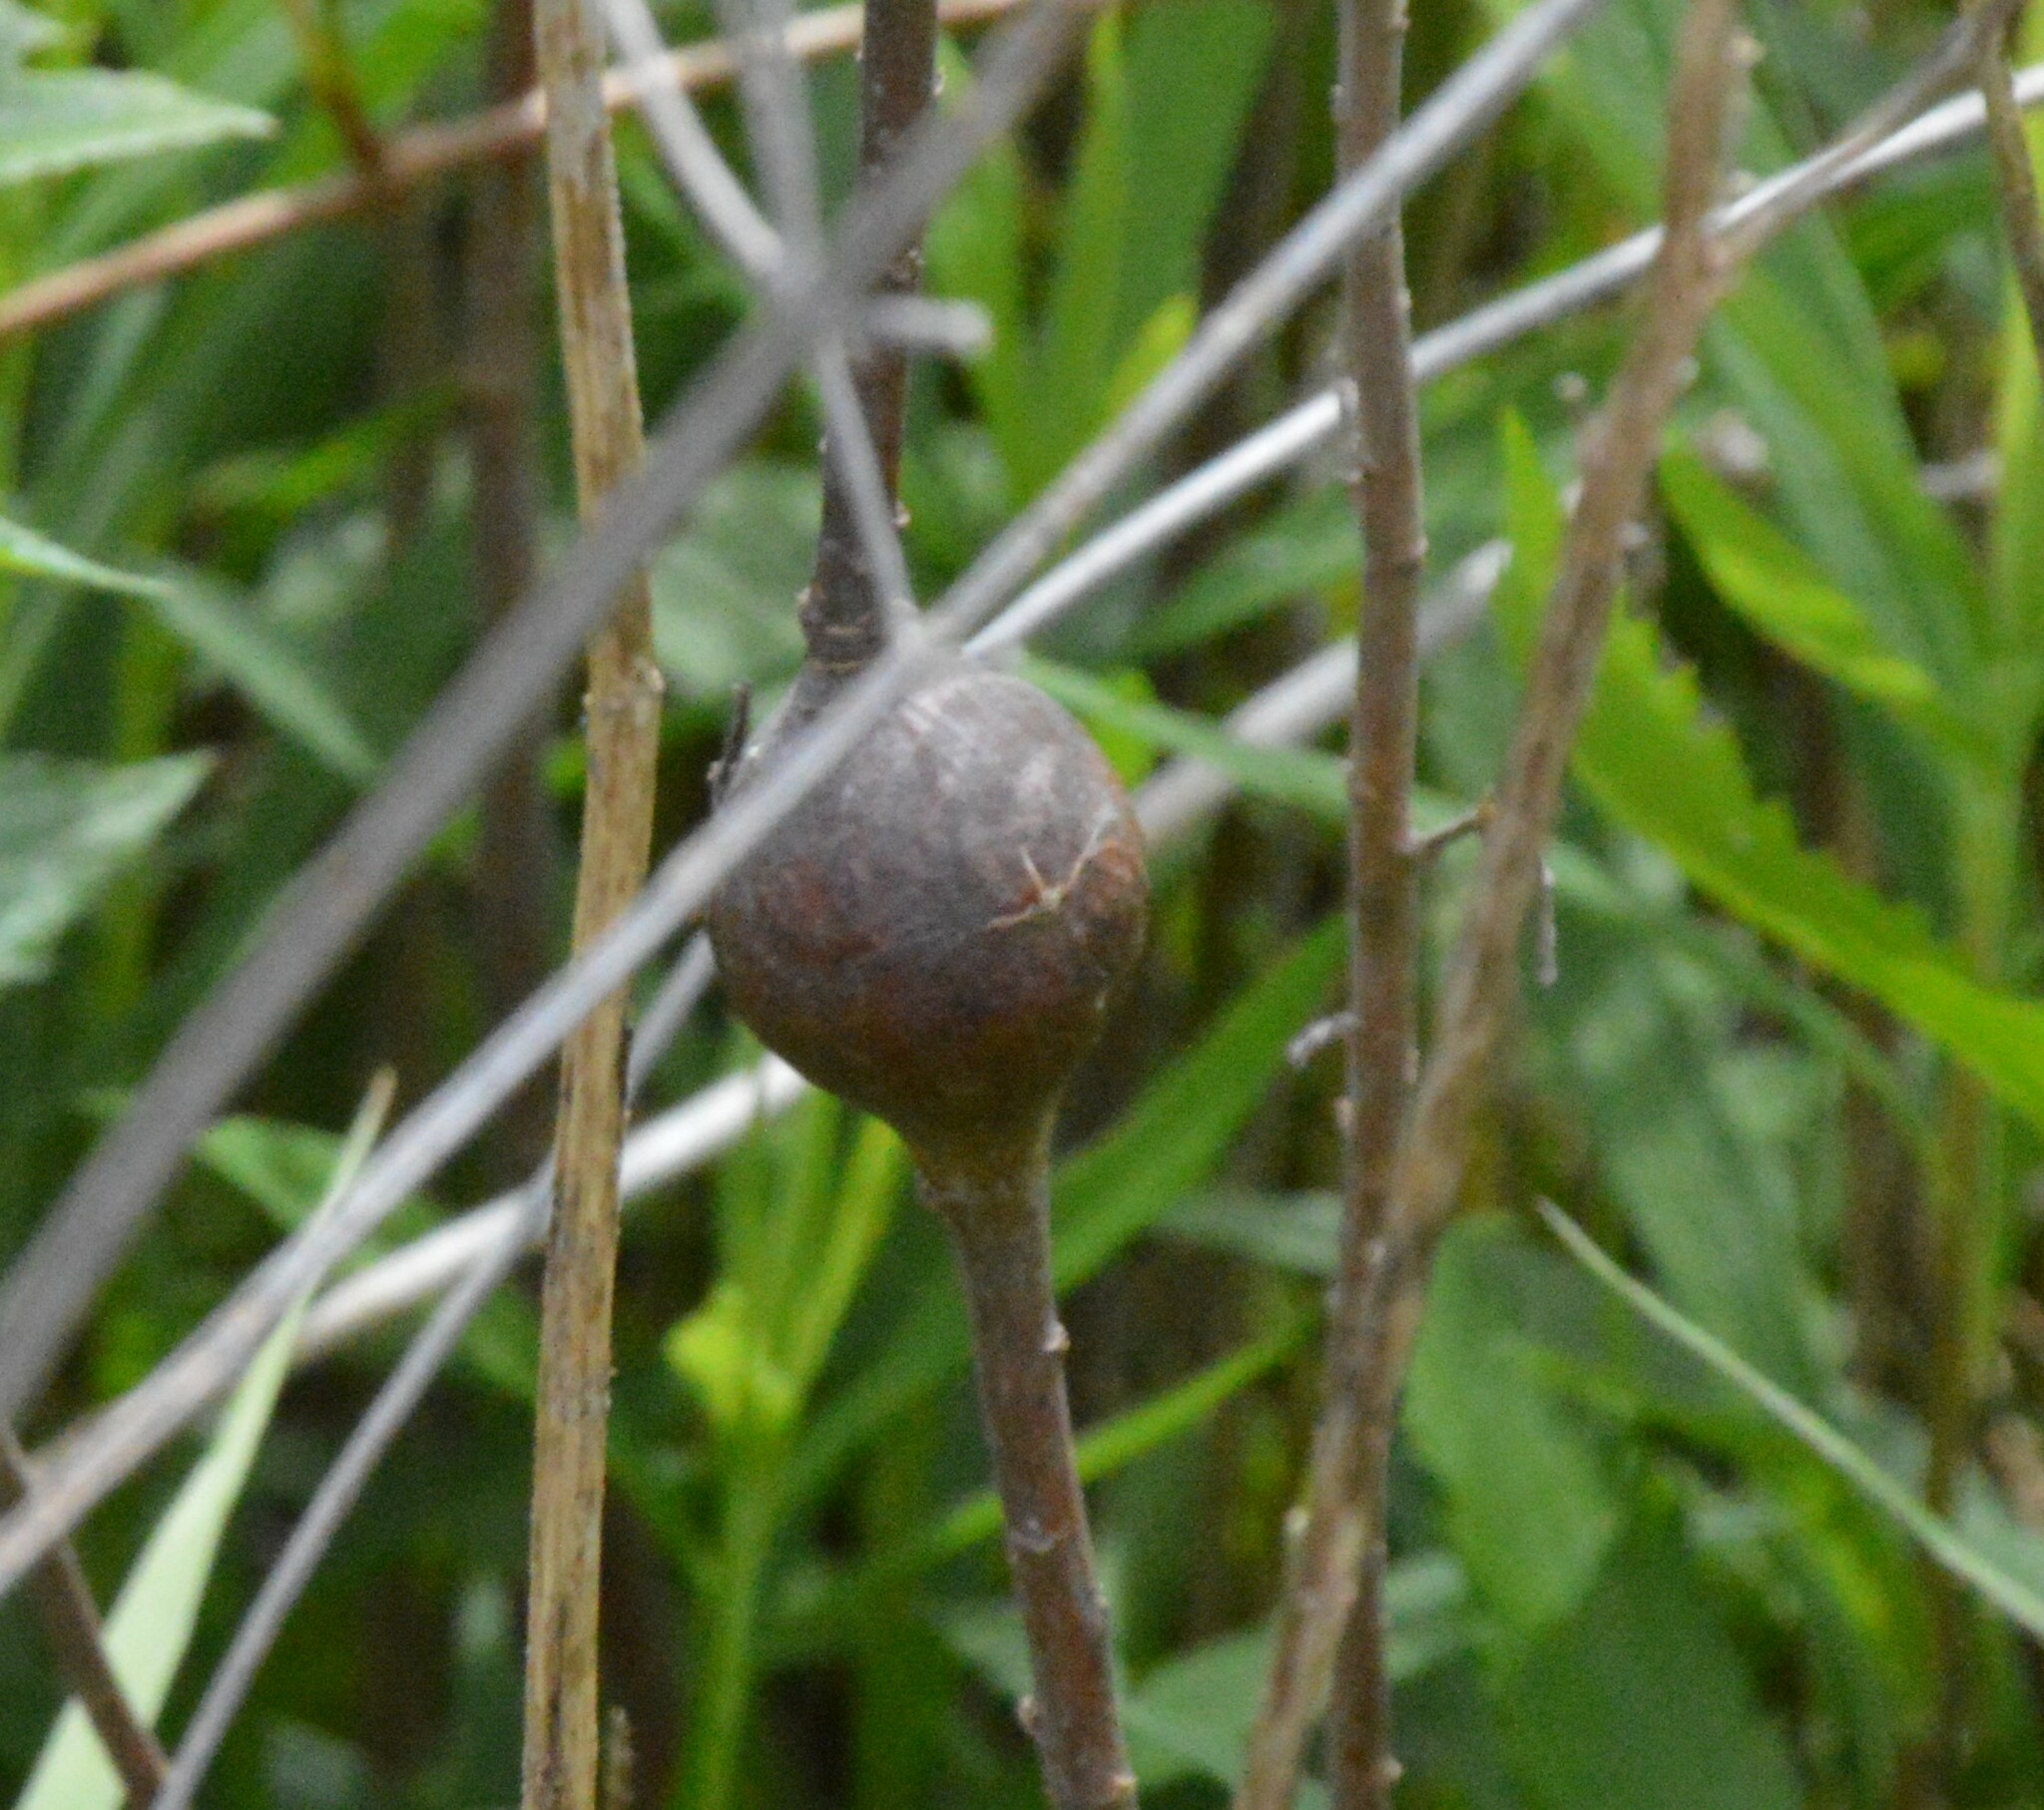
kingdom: Animalia
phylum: Arthropoda
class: Insecta
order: Diptera
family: Tephritidae
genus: Eurosta
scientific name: Eurosta solidaginis
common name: Goldenrod gall fly
